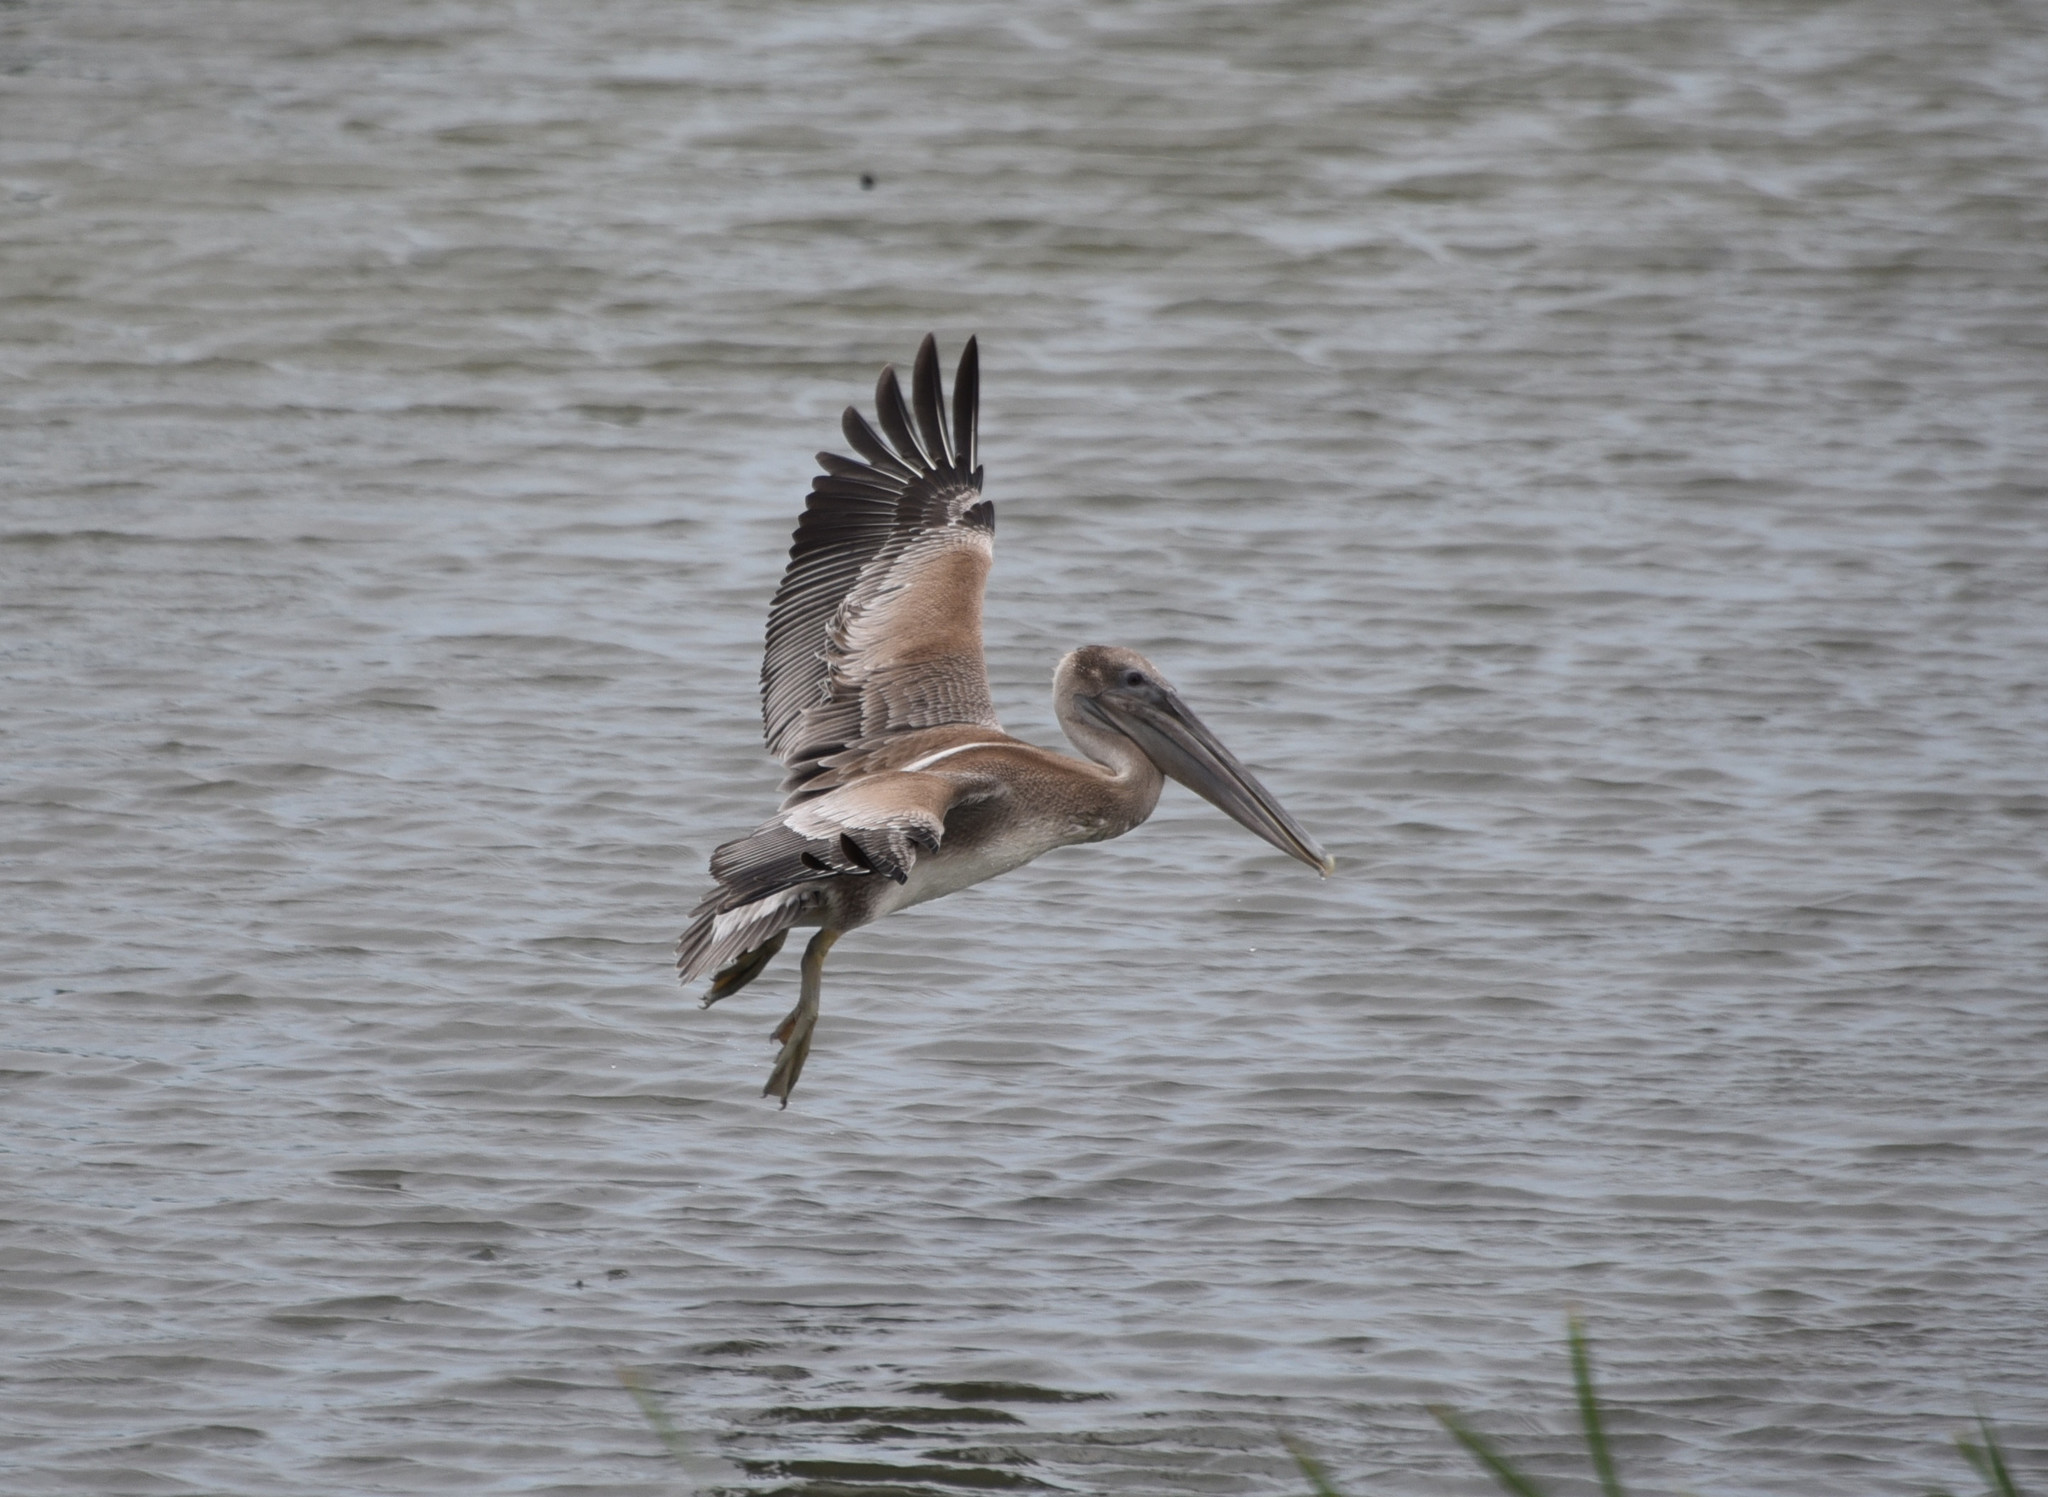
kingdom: Animalia
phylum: Chordata
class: Aves
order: Pelecaniformes
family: Pelecanidae
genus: Pelecanus
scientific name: Pelecanus occidentalis
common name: Brown pelican
